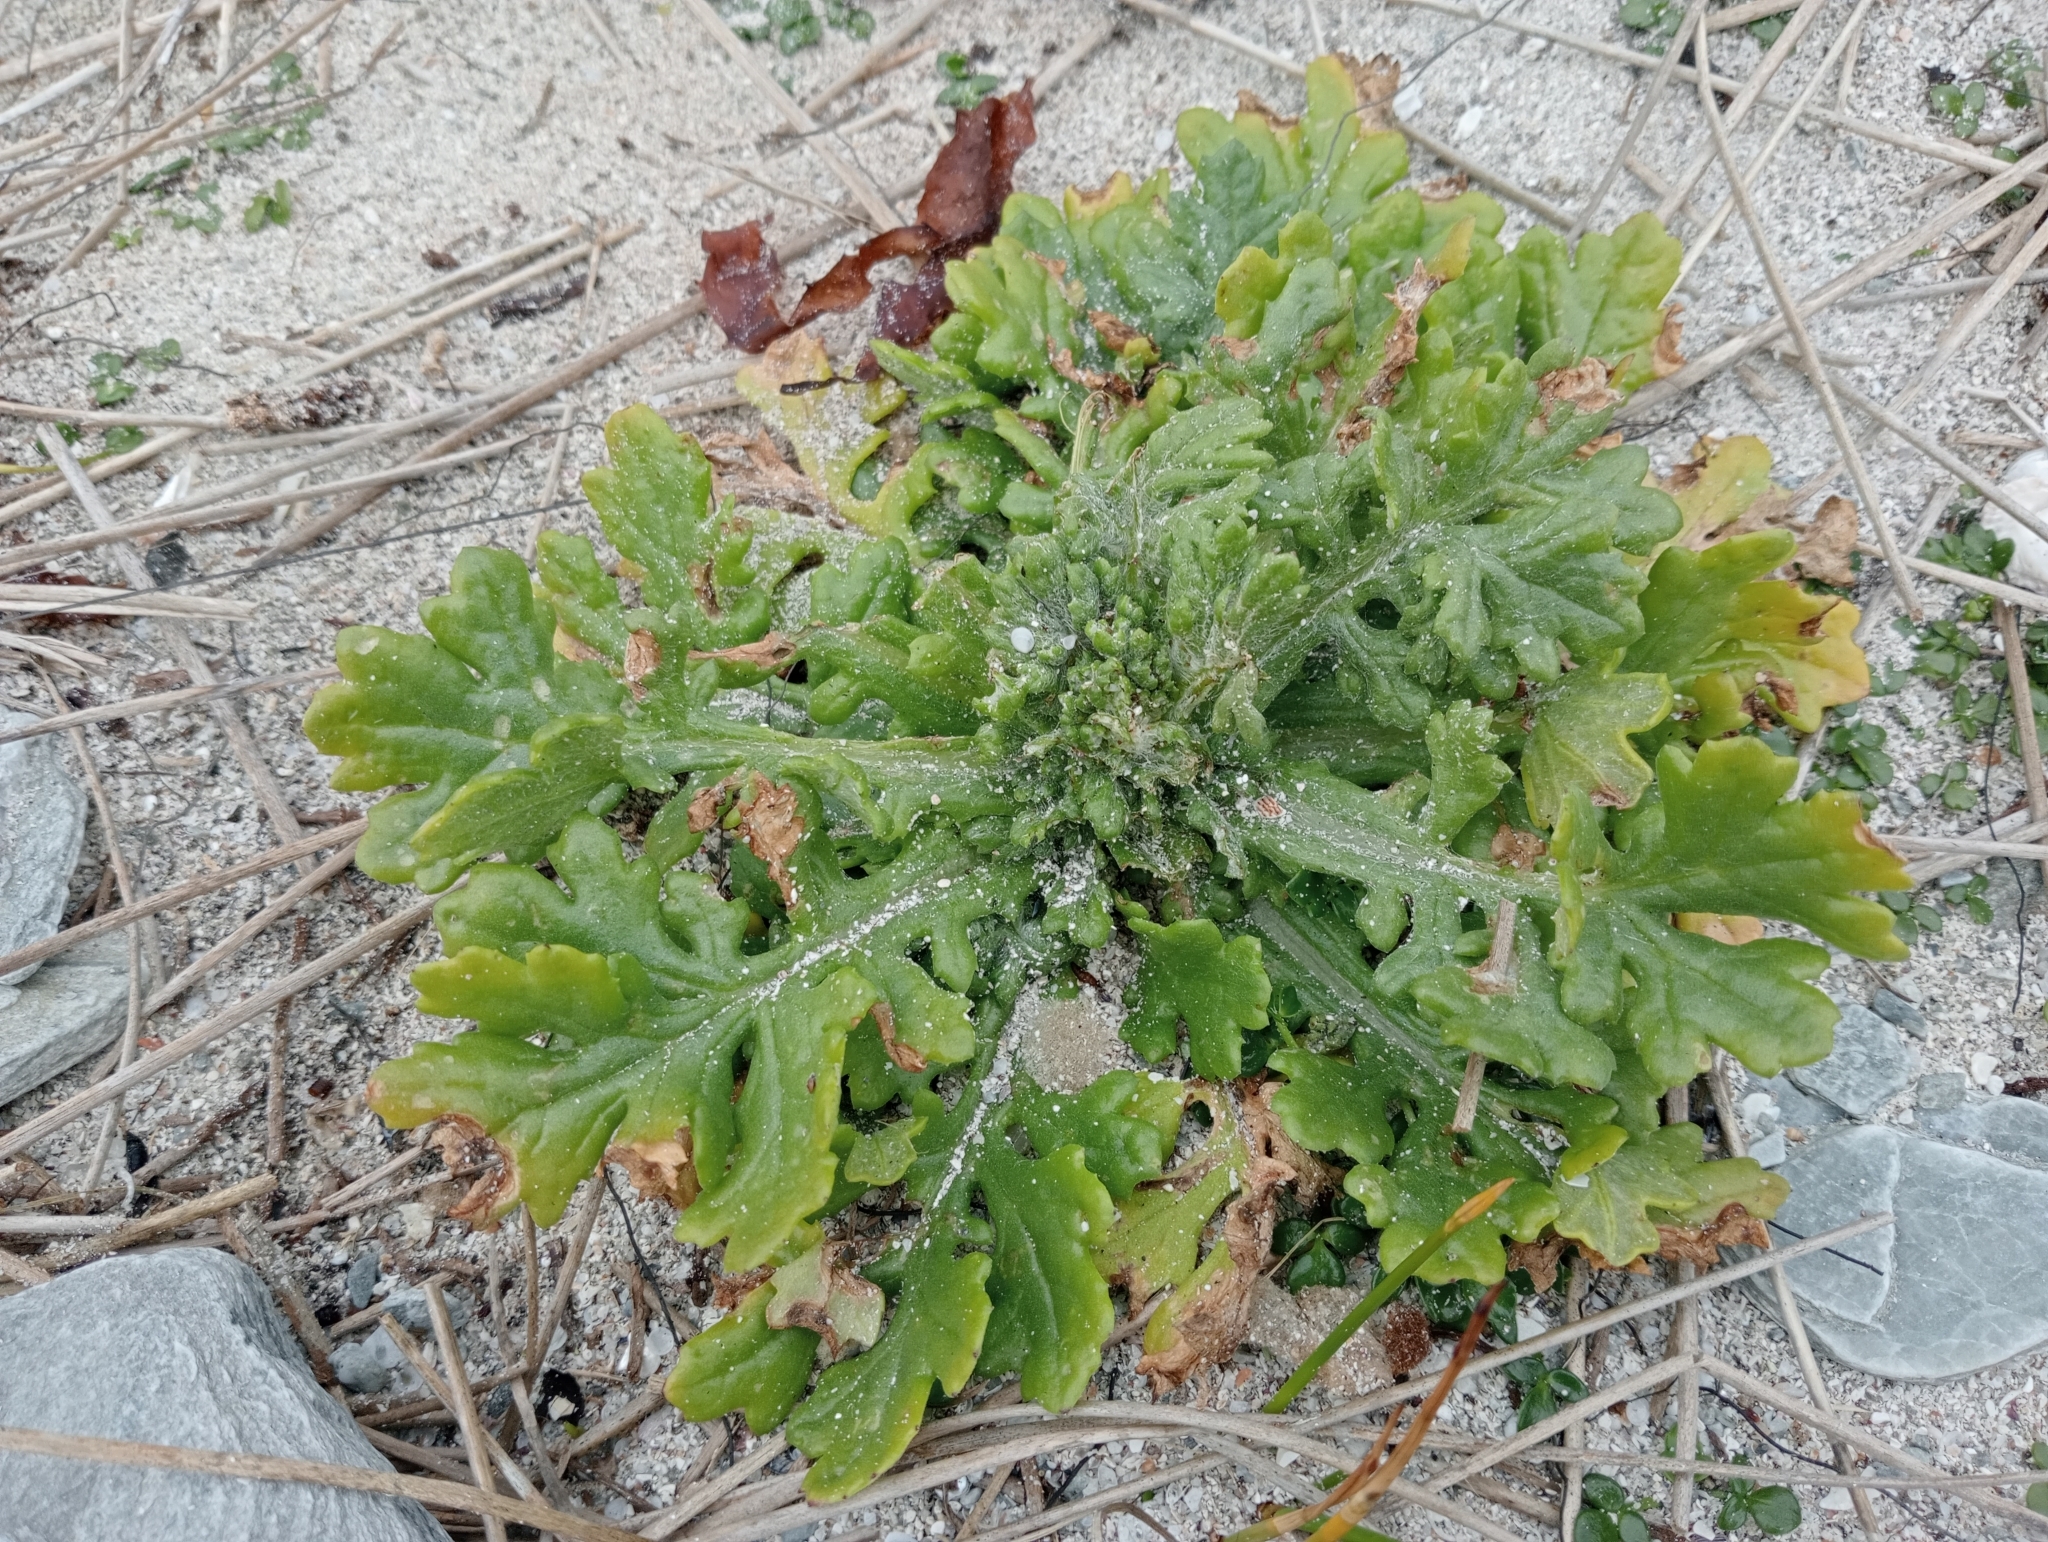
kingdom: Plantae
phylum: Tracheophyta
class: Magnoliopsida
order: Asterales
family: Asteraceae
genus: Senecio
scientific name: Senecio radiolatus
